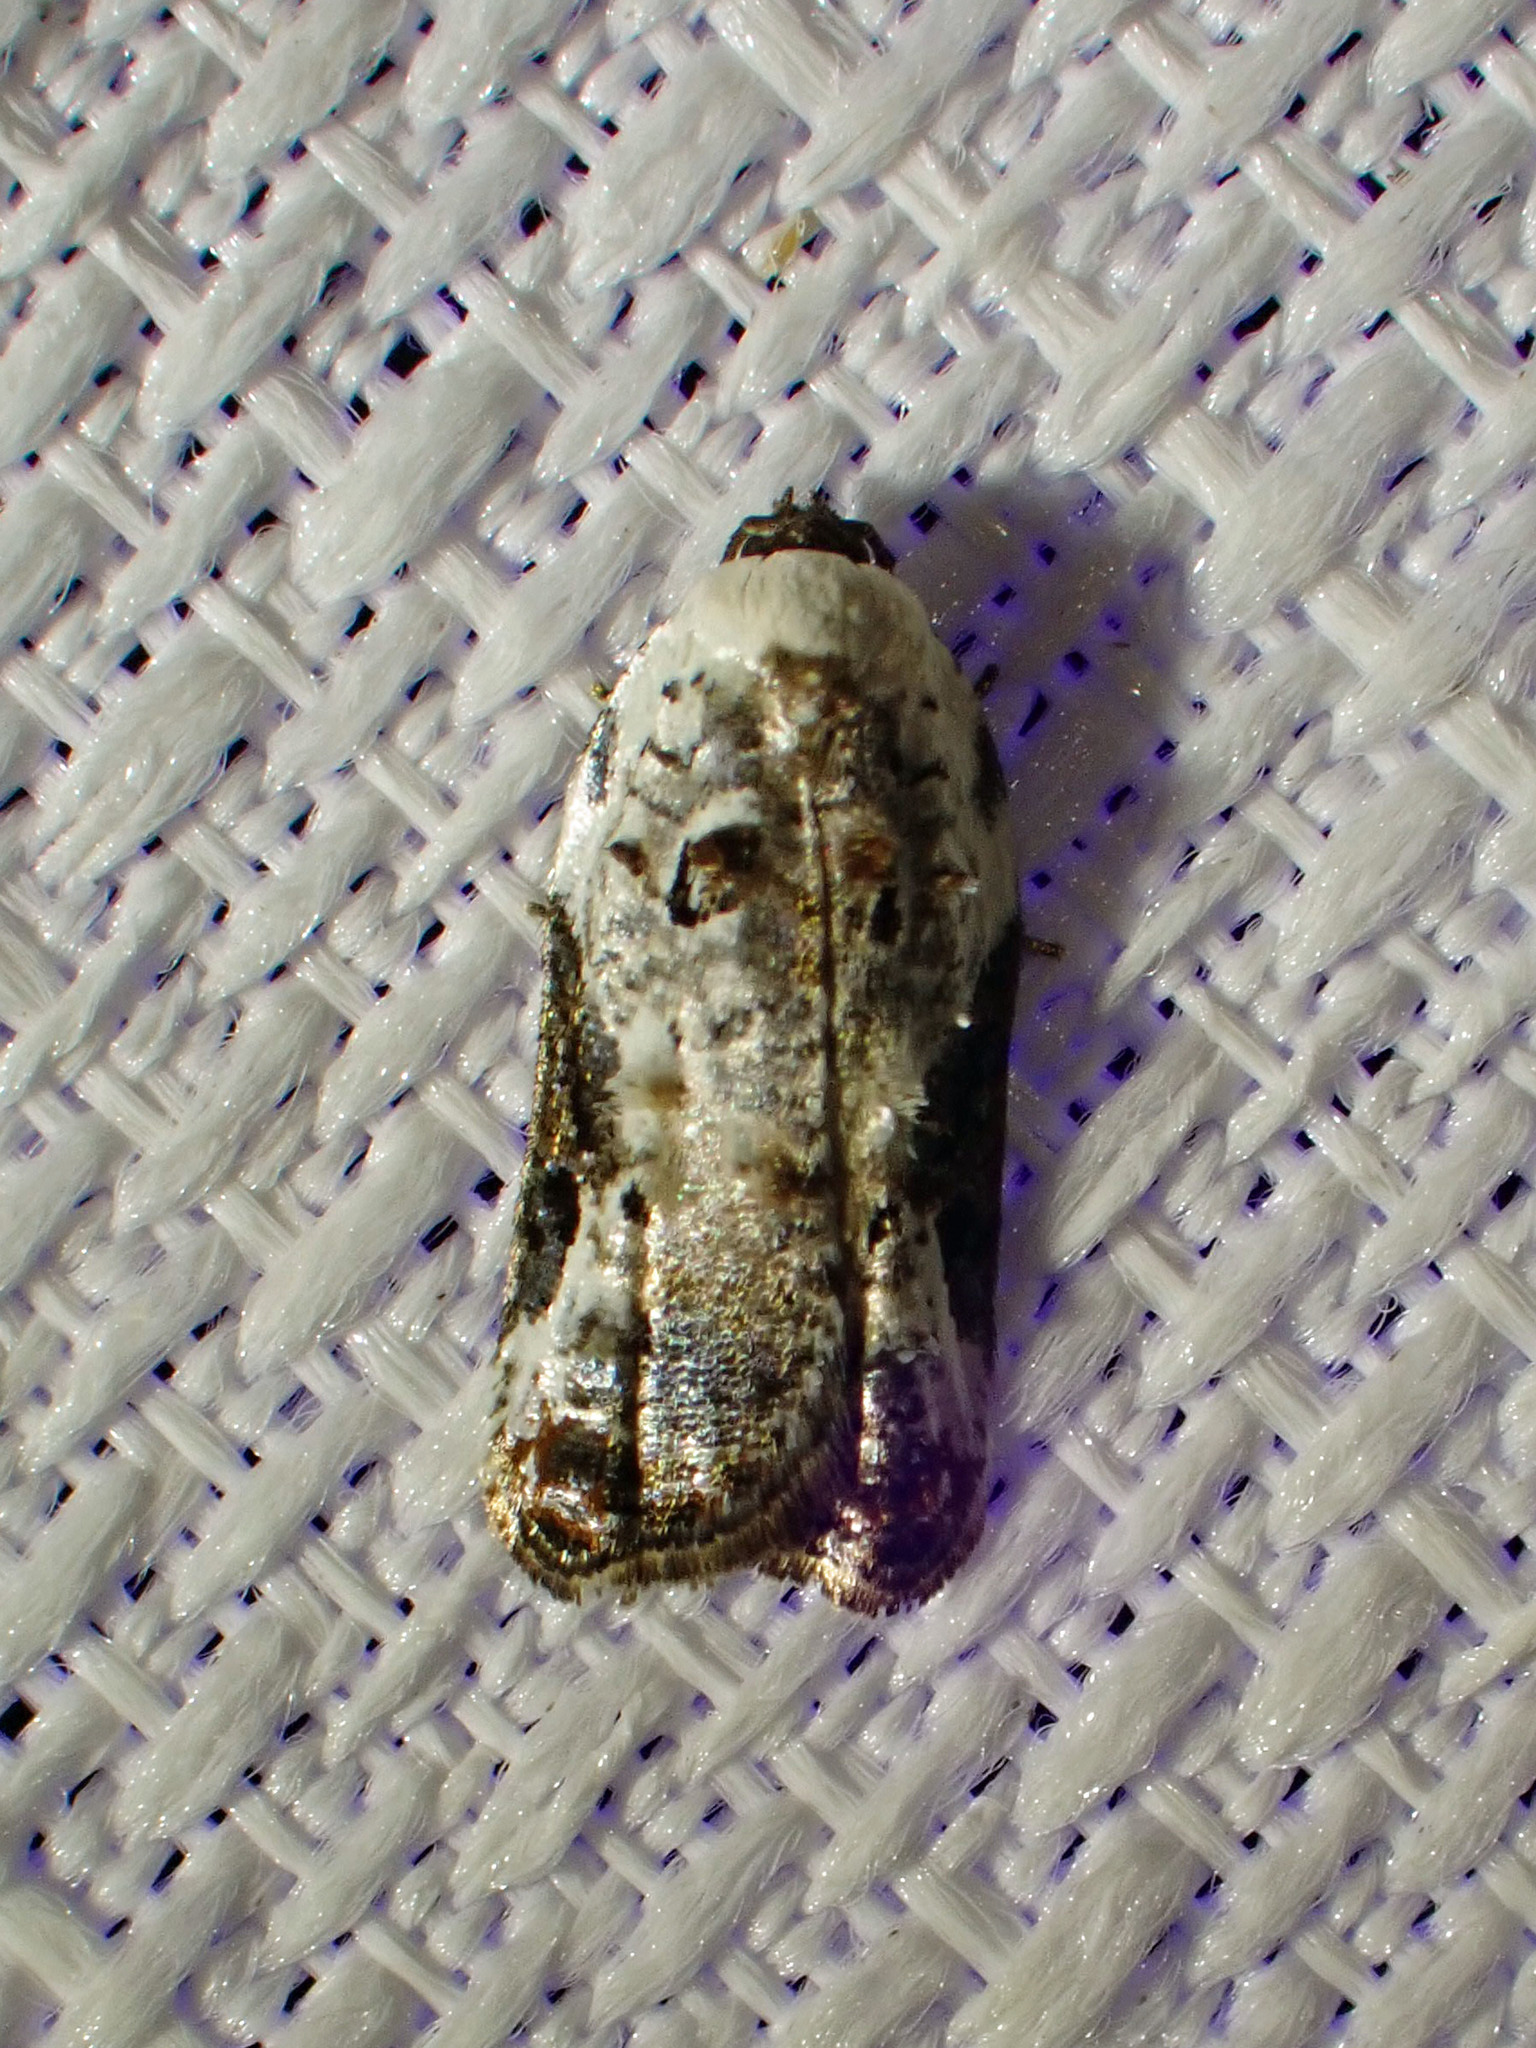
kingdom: Animalia
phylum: Arthropoda
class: Insecta
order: Lepidoptera
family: Tortricidae
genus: Acleris
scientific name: Acleris nivisellana
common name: Snowy-shouldered acleris moth
